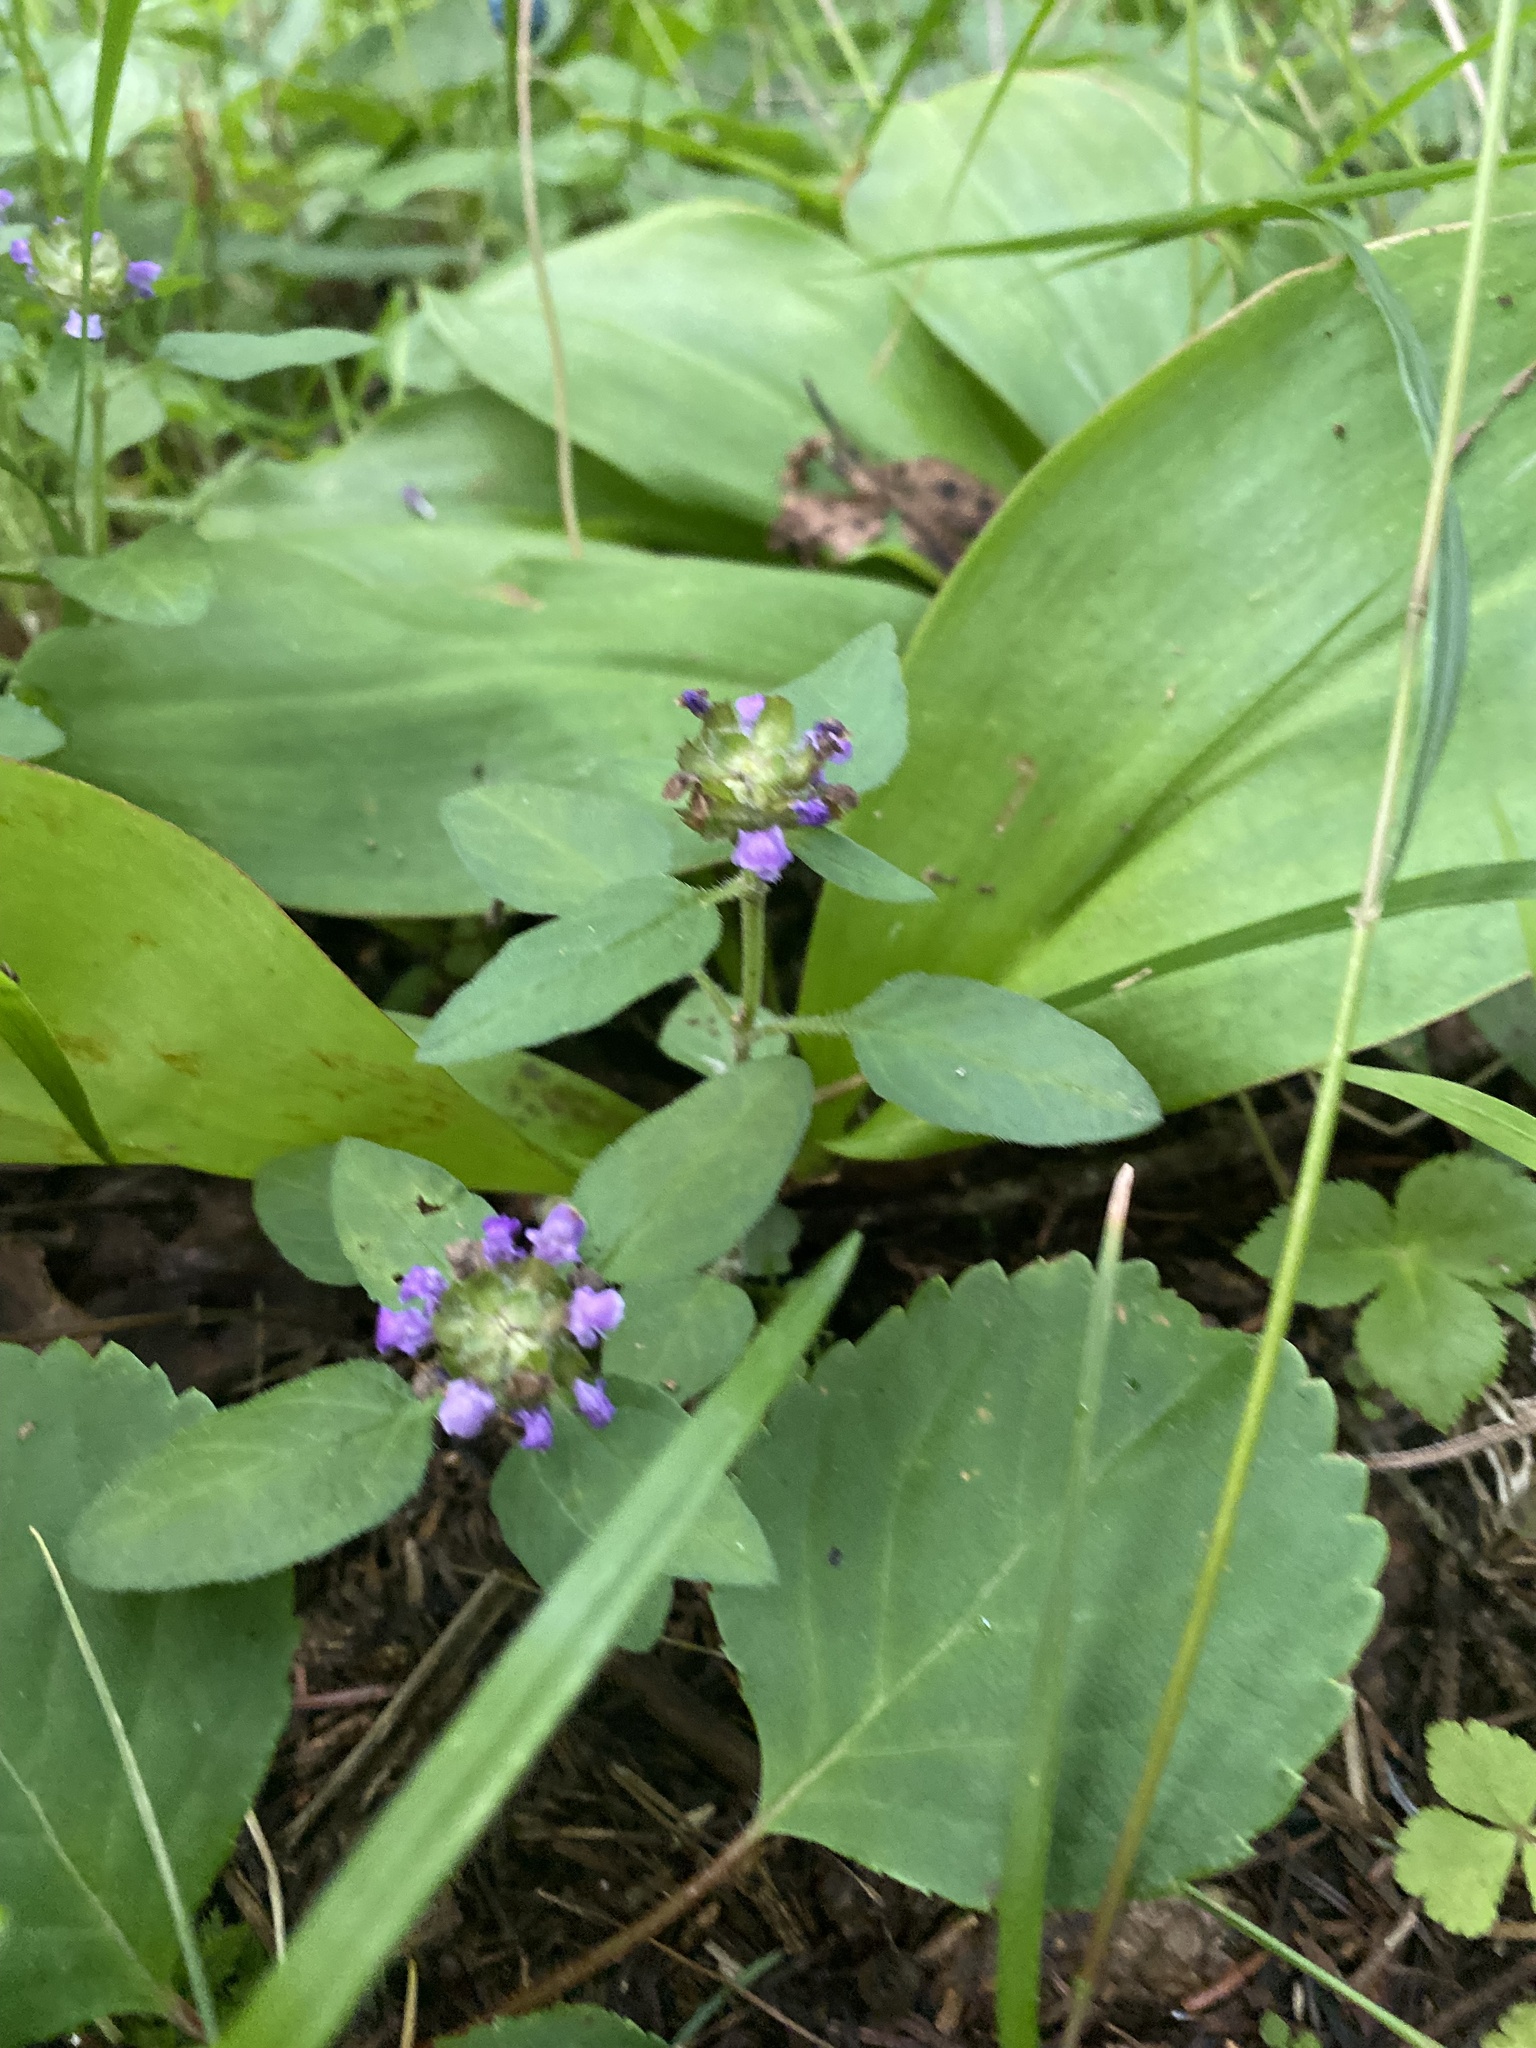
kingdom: Plantae
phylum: Tracheophyta
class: Magnoliopsida
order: Lamiales
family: Lamiaceae
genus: Prunella
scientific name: Prunella vulgaris
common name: Heal-all
